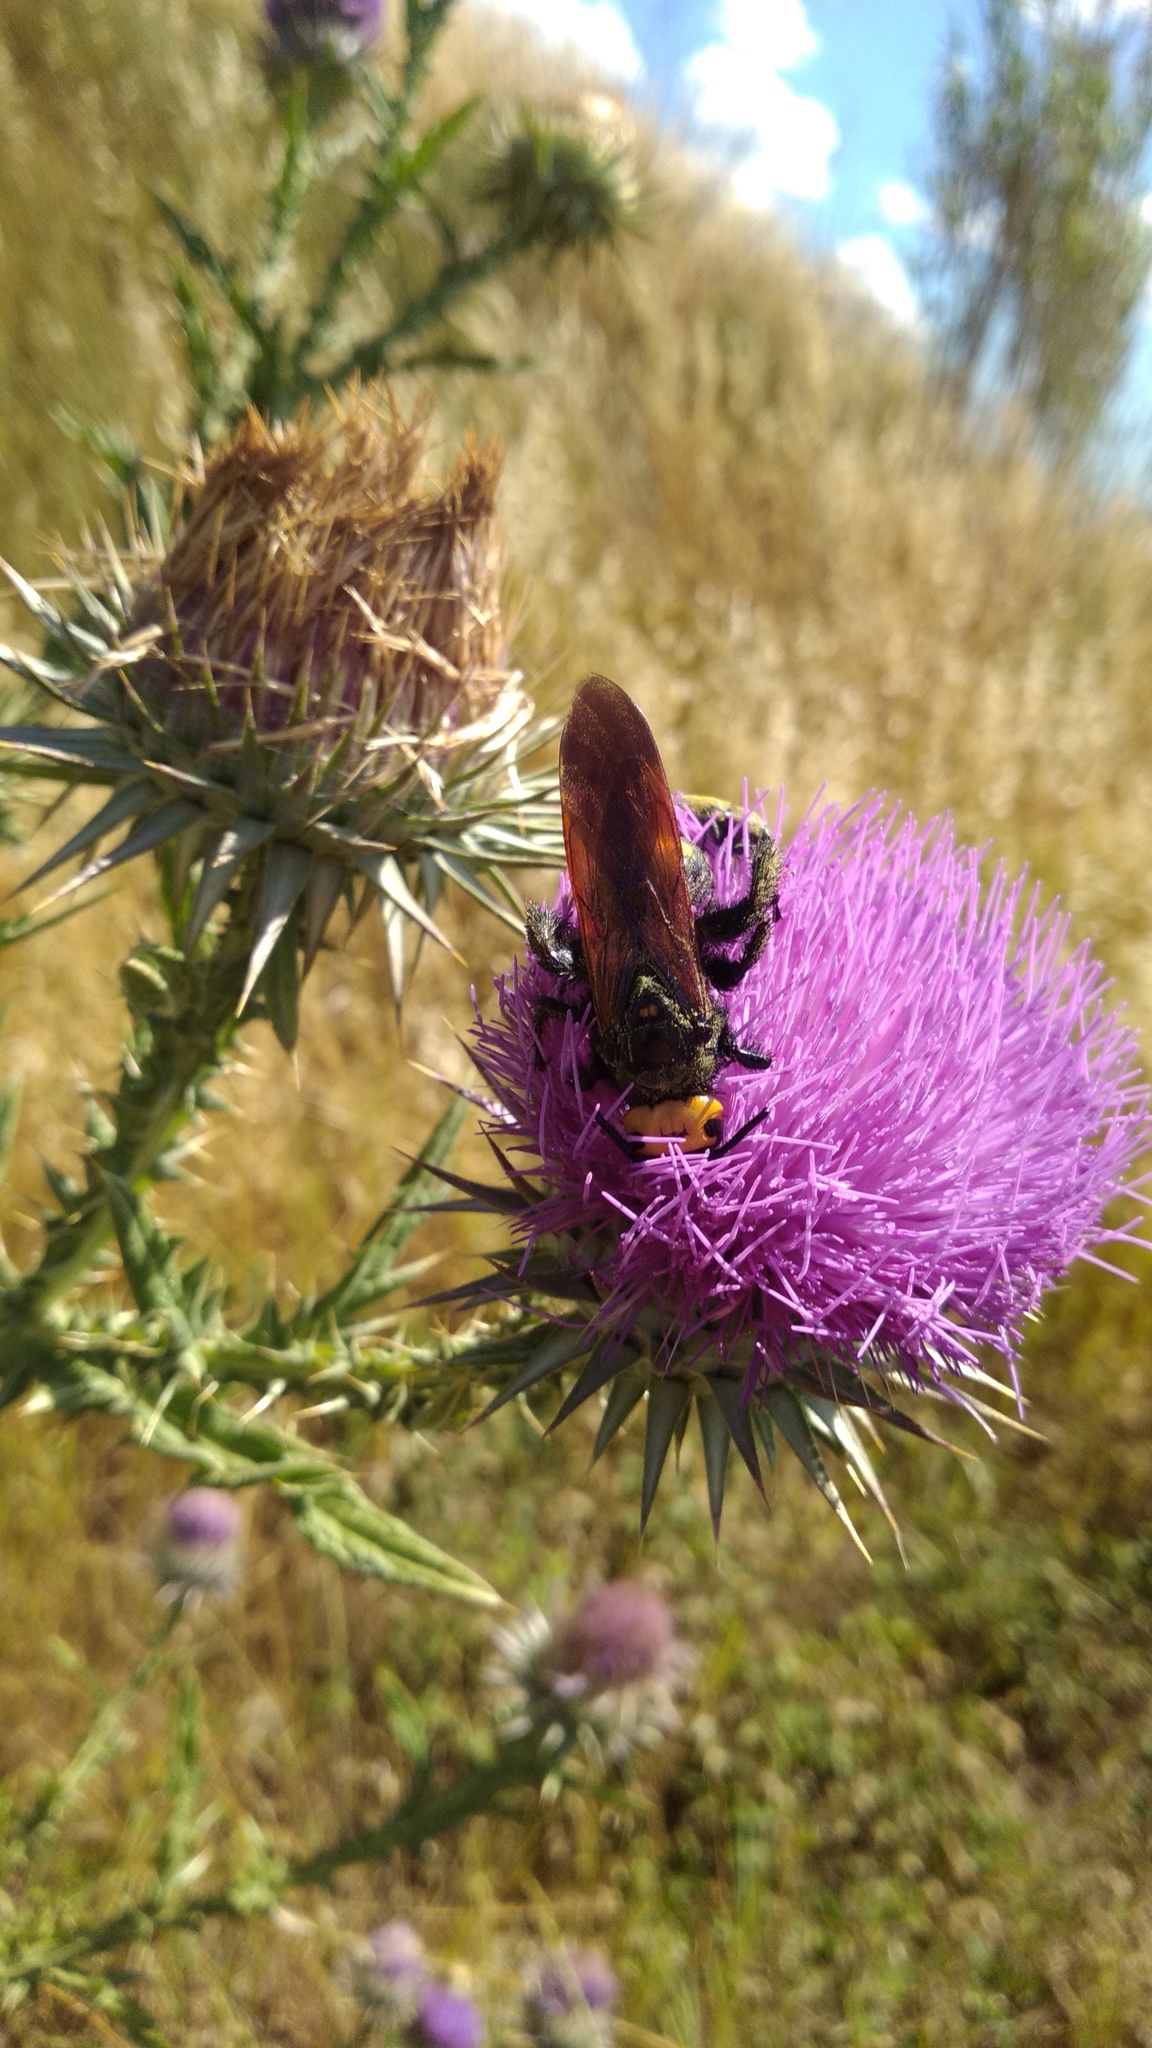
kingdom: Animalia
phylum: Arthropoda
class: Insecta
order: Hymenoptera
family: Scoliidae
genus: Megascolia
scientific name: Megascolia maculata
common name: Mammoth wasp
